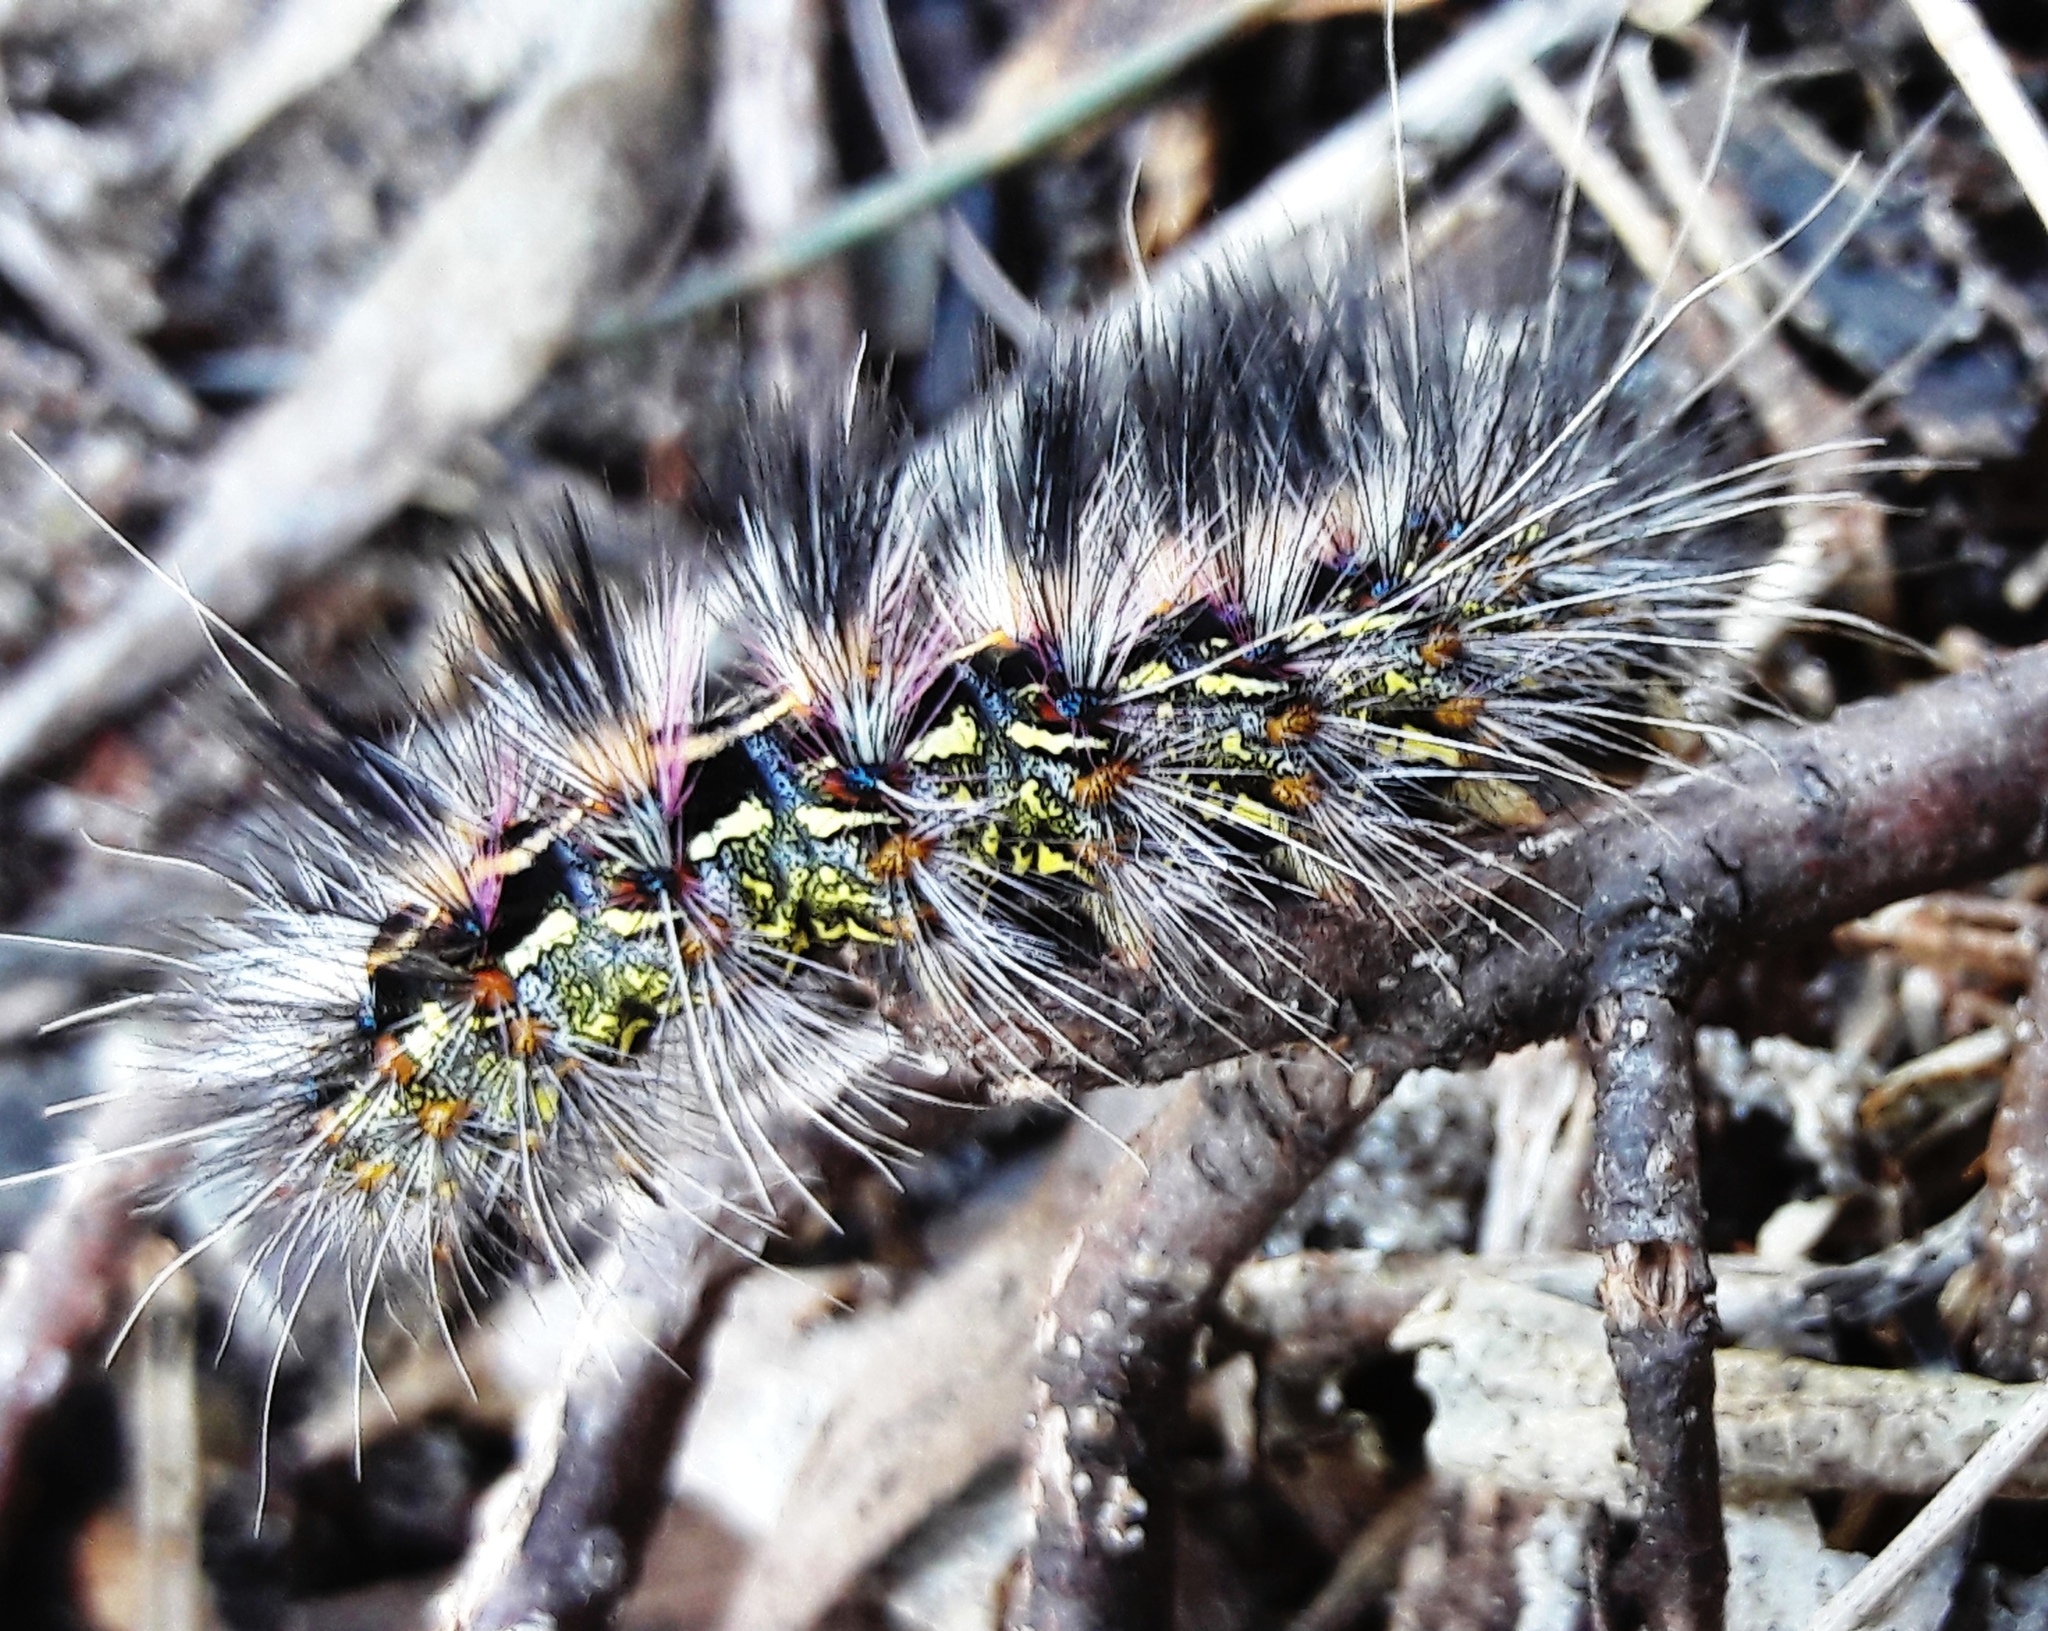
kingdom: Animalia
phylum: Arthropoda
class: Insecta
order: Lepidoptera
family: Erebidae
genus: Paralacydes
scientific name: Paralacydes vocula
